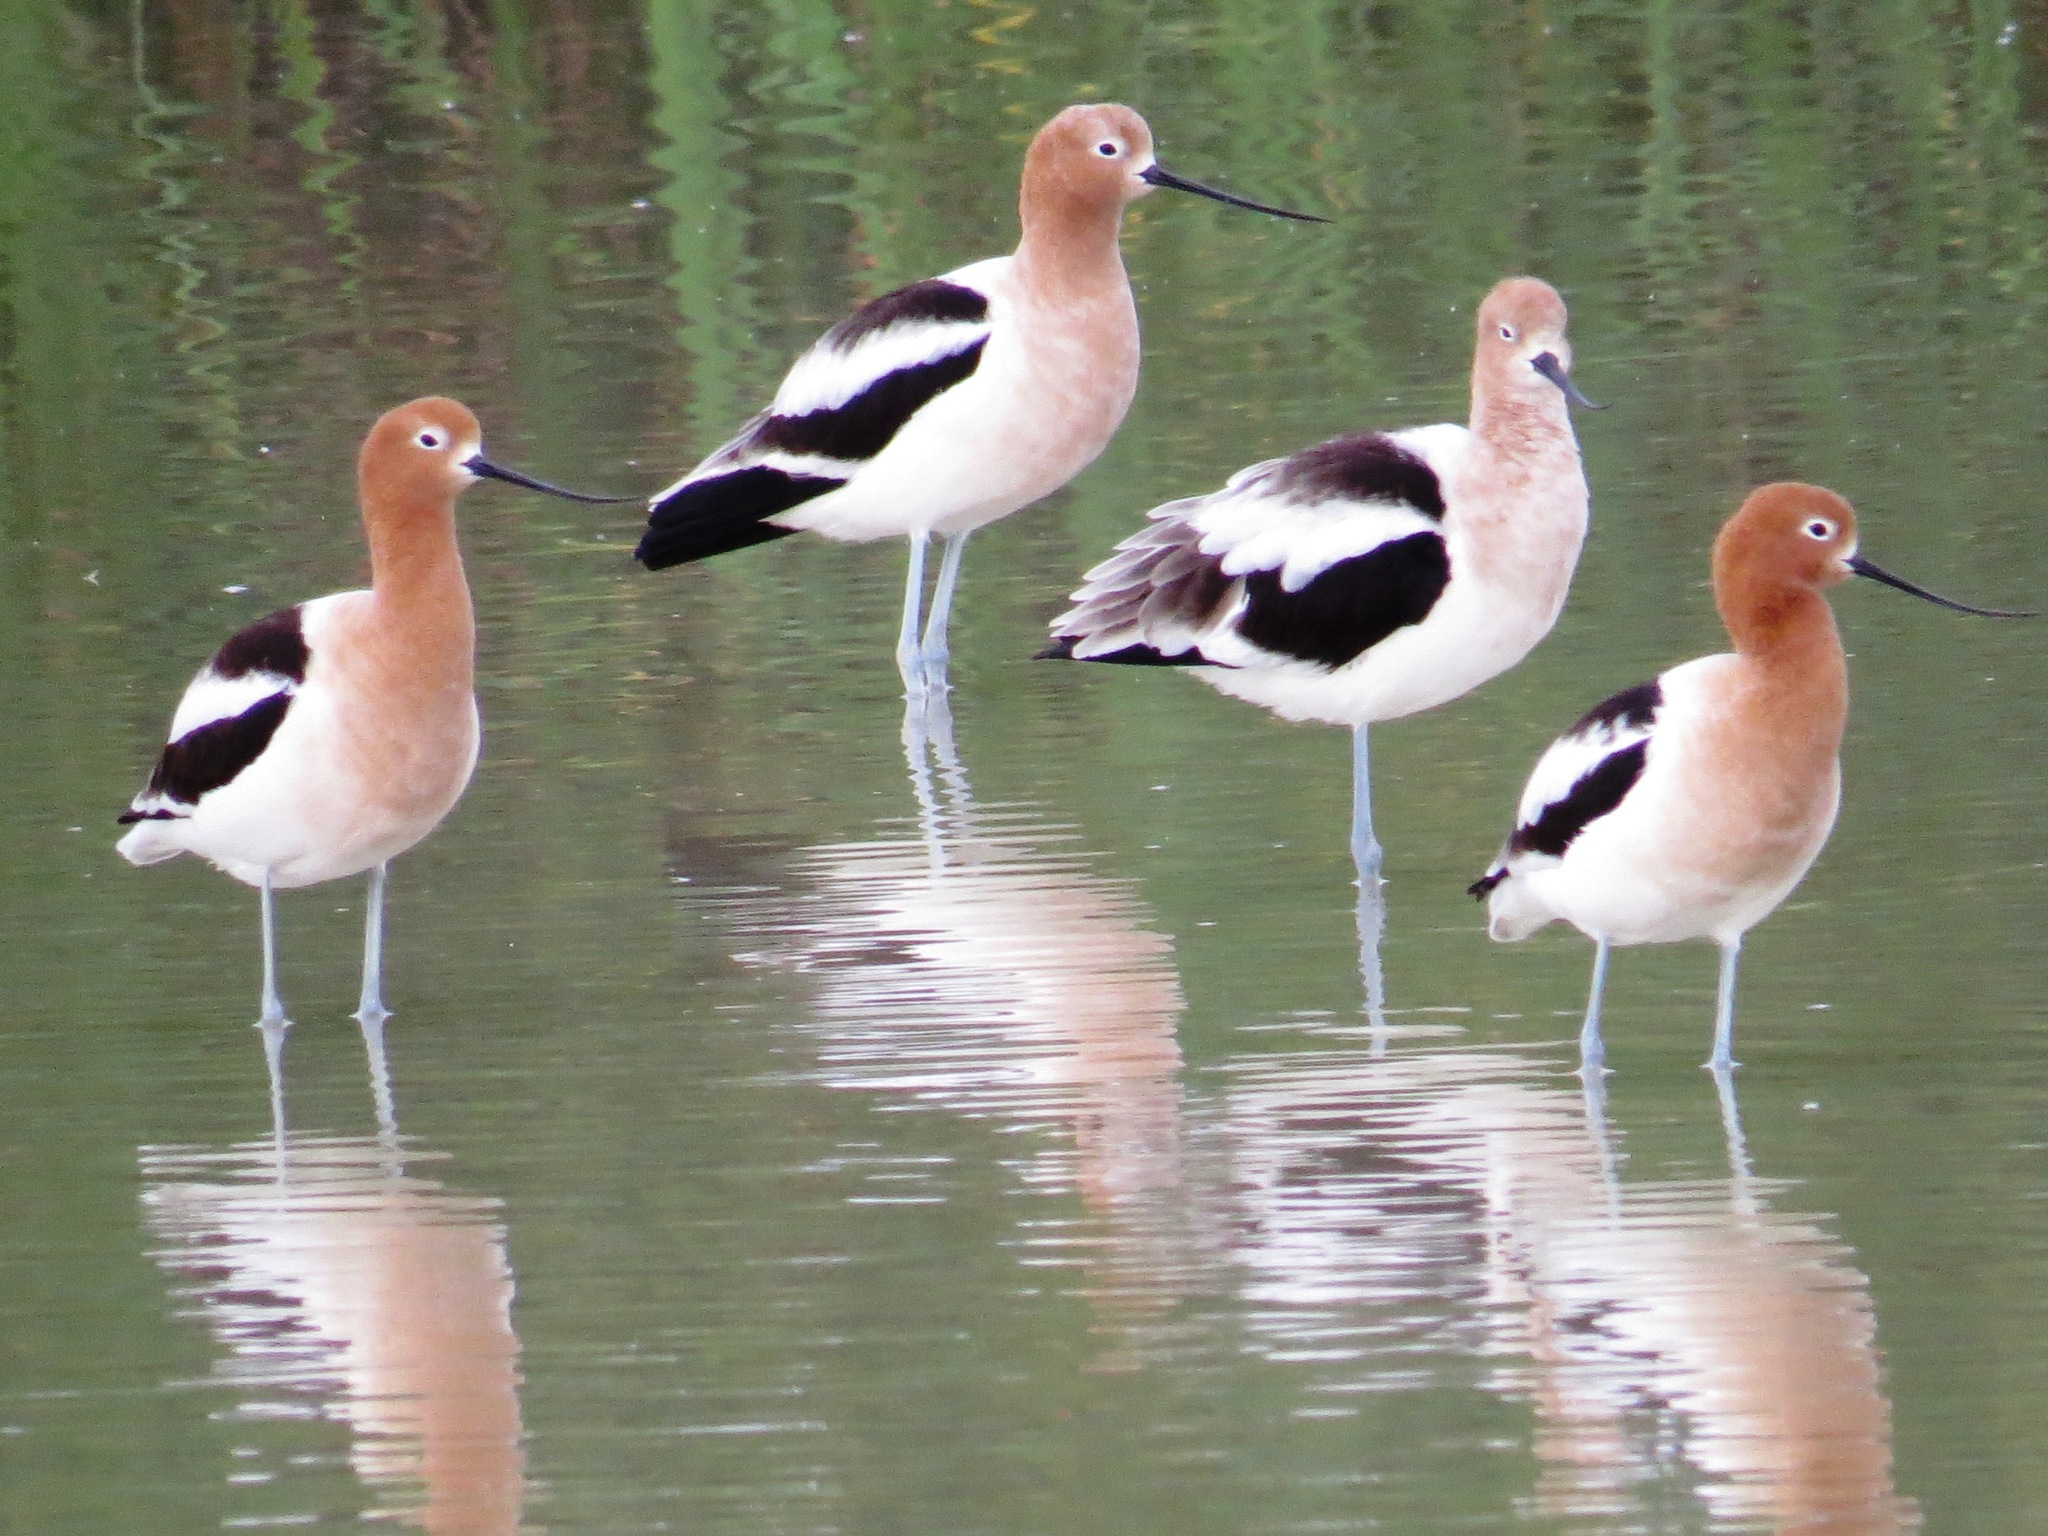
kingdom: Animalia
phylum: Chordata
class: Aves
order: Charadriiformes
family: Recurvirostridae
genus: Recurvirostra
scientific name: Recurvirostra americana
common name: American avocet
